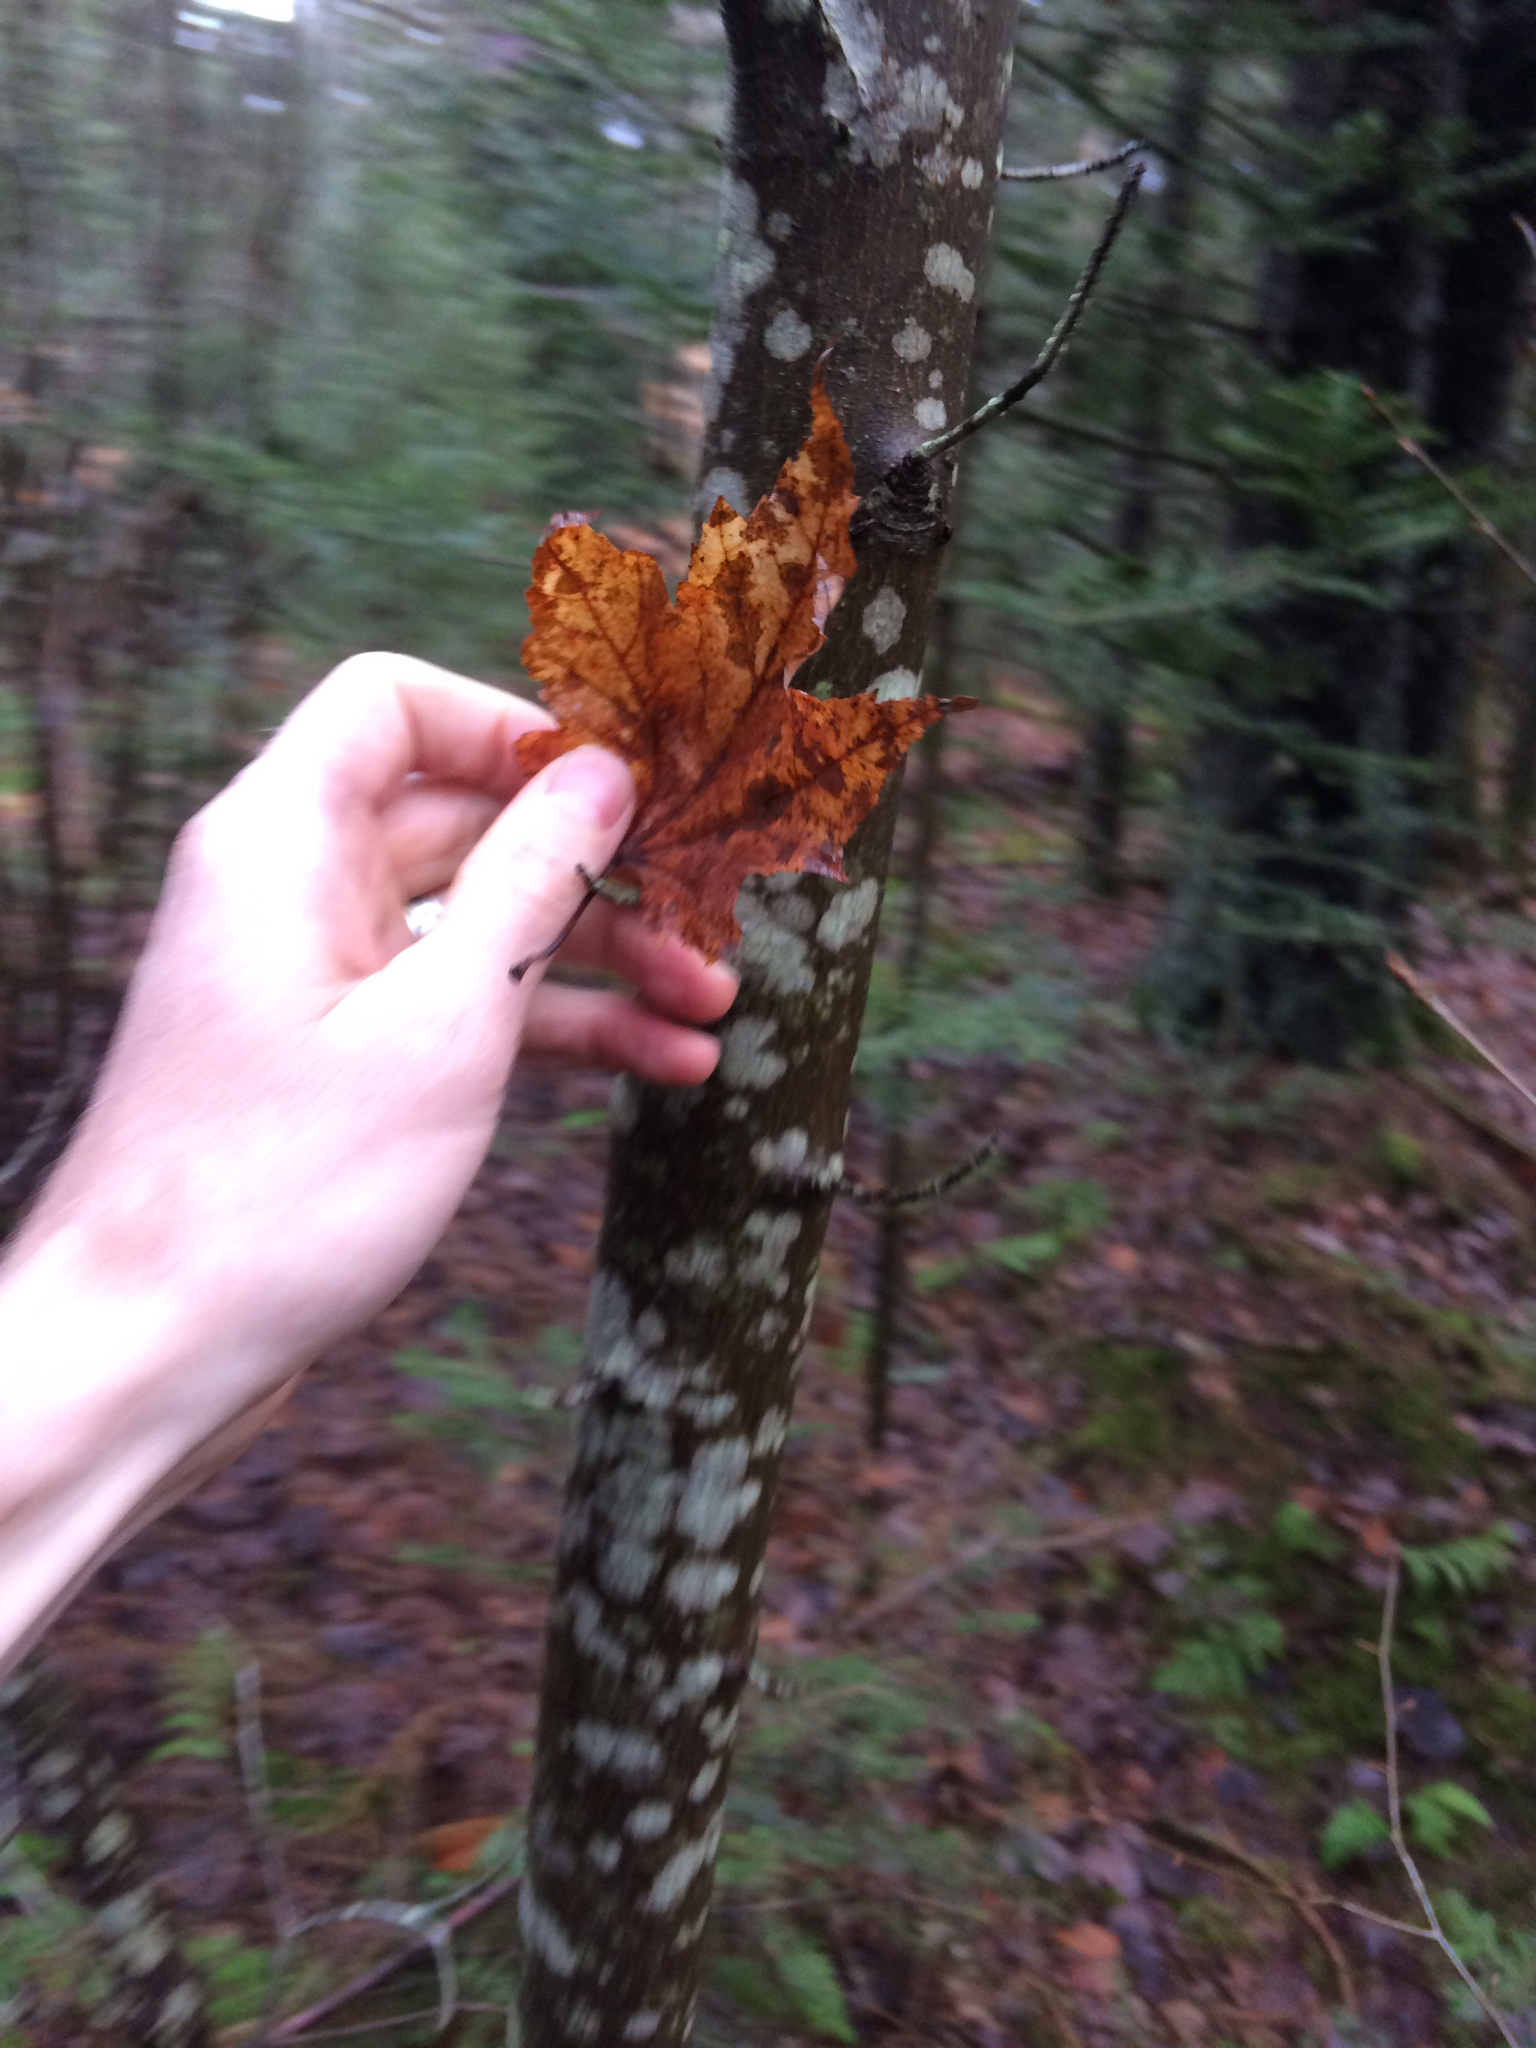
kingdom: Plantae
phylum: Tracheophyta
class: Magnoliopsida
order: Sapindales
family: Sapindaceae
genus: Acer
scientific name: Acer rubrum
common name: Red maple
